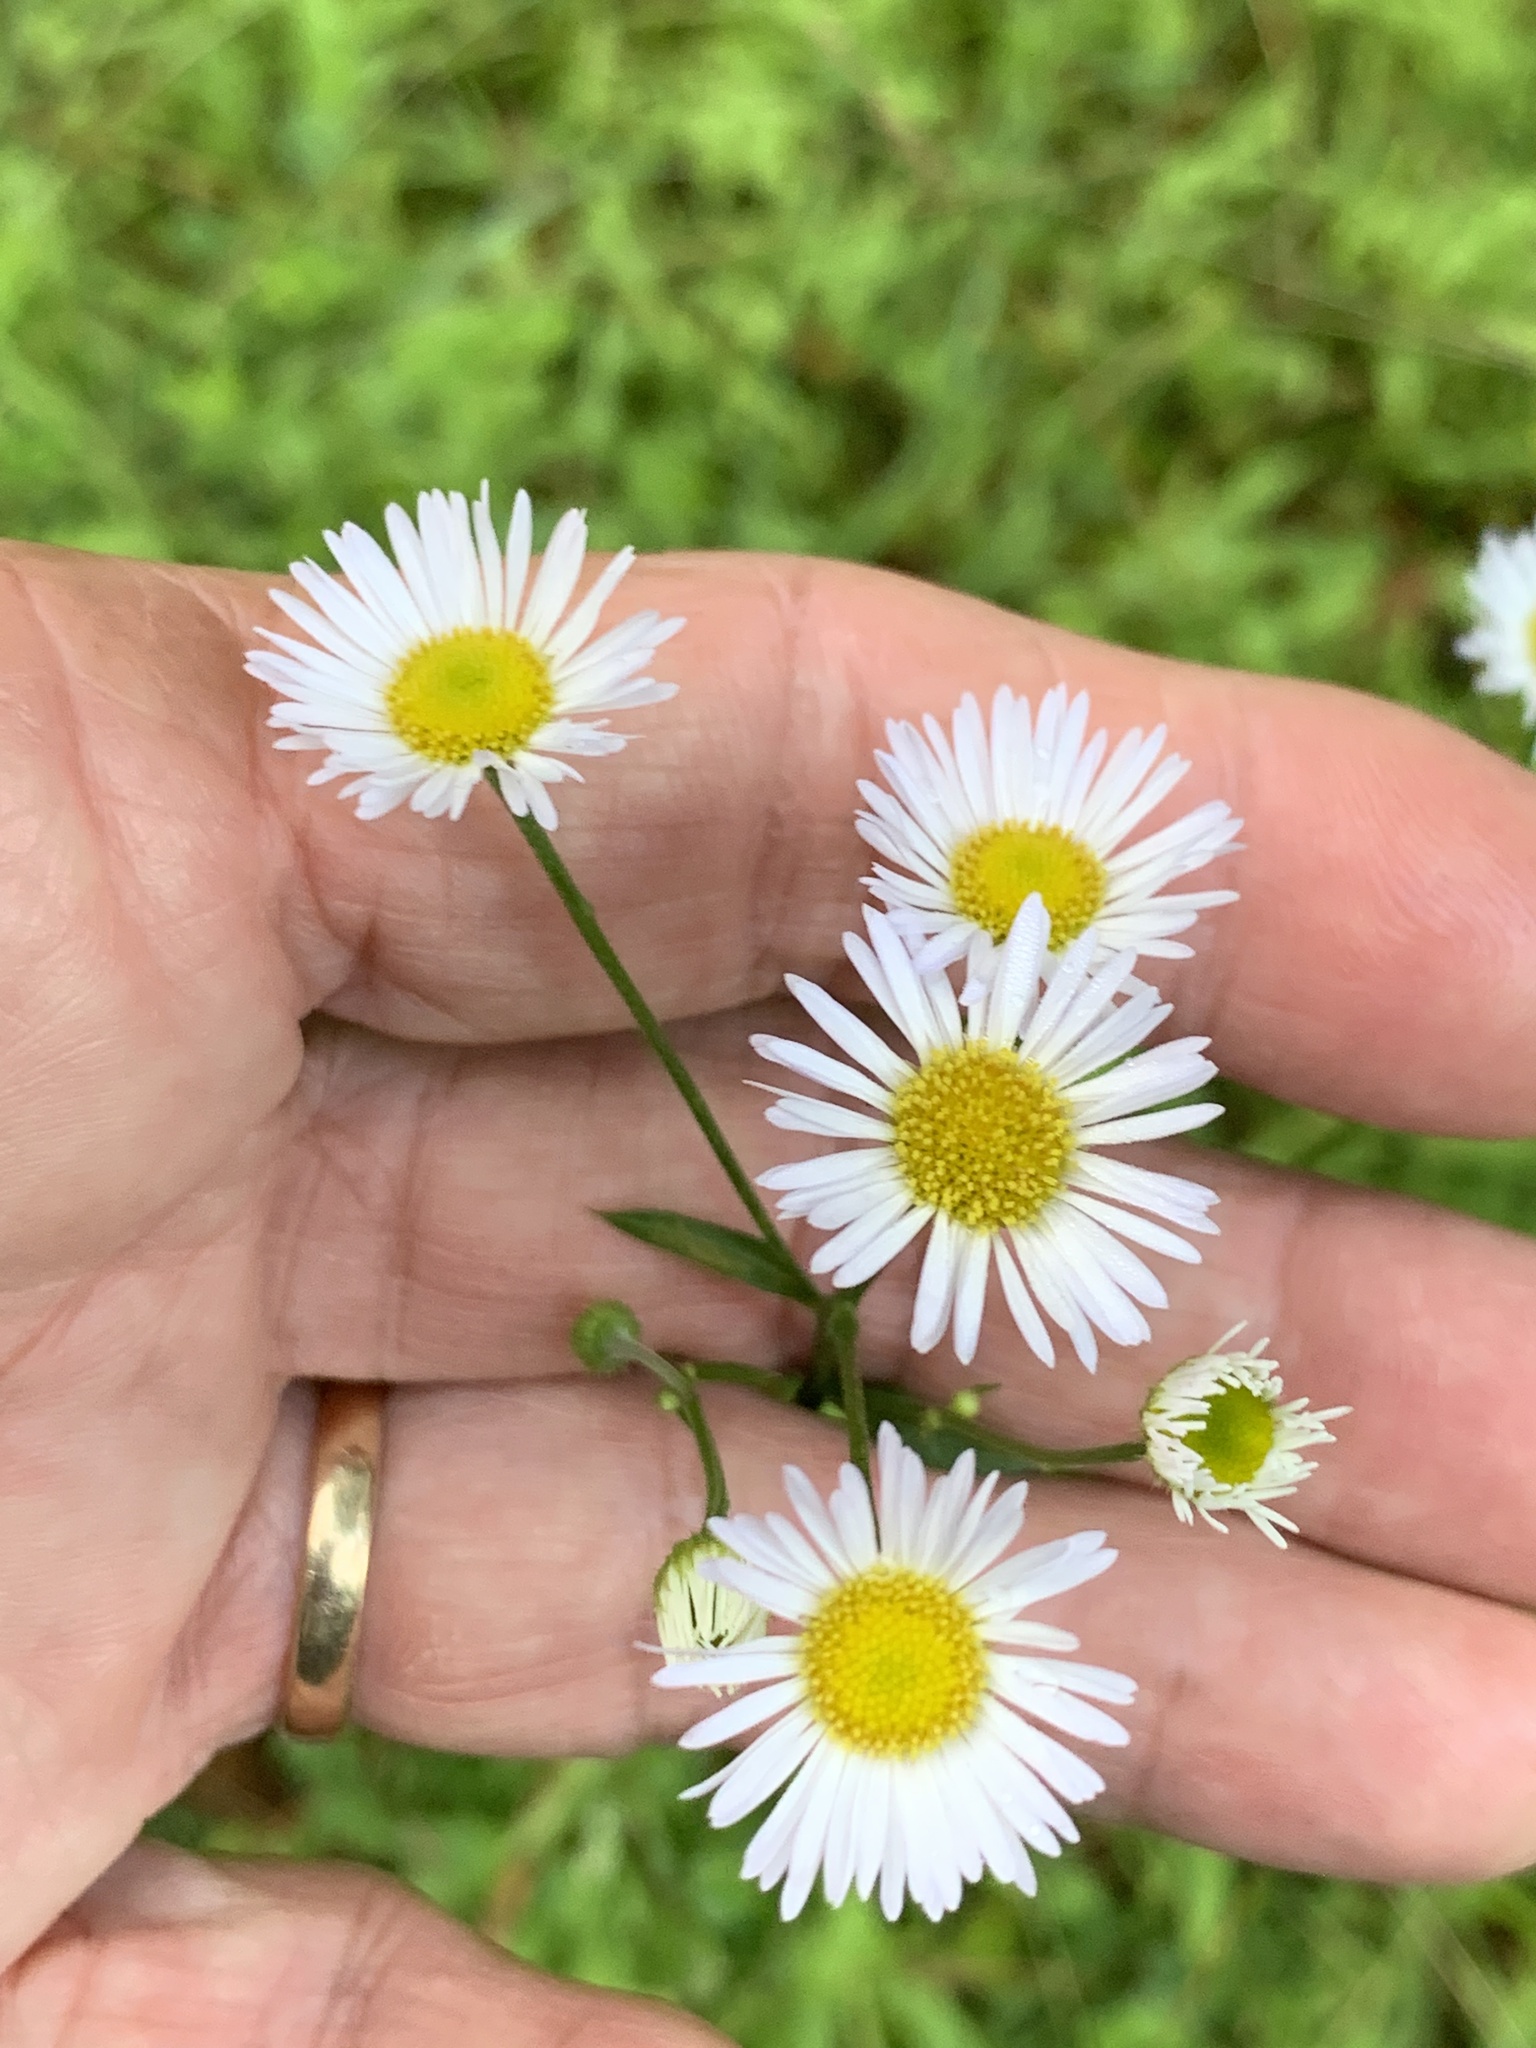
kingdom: Plantae
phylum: Tracheophyta
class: Magnoliopsida
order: Asterales
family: Asteraceae
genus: Erigeron
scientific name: Erigeron strigosus
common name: Common eastern fleabane
